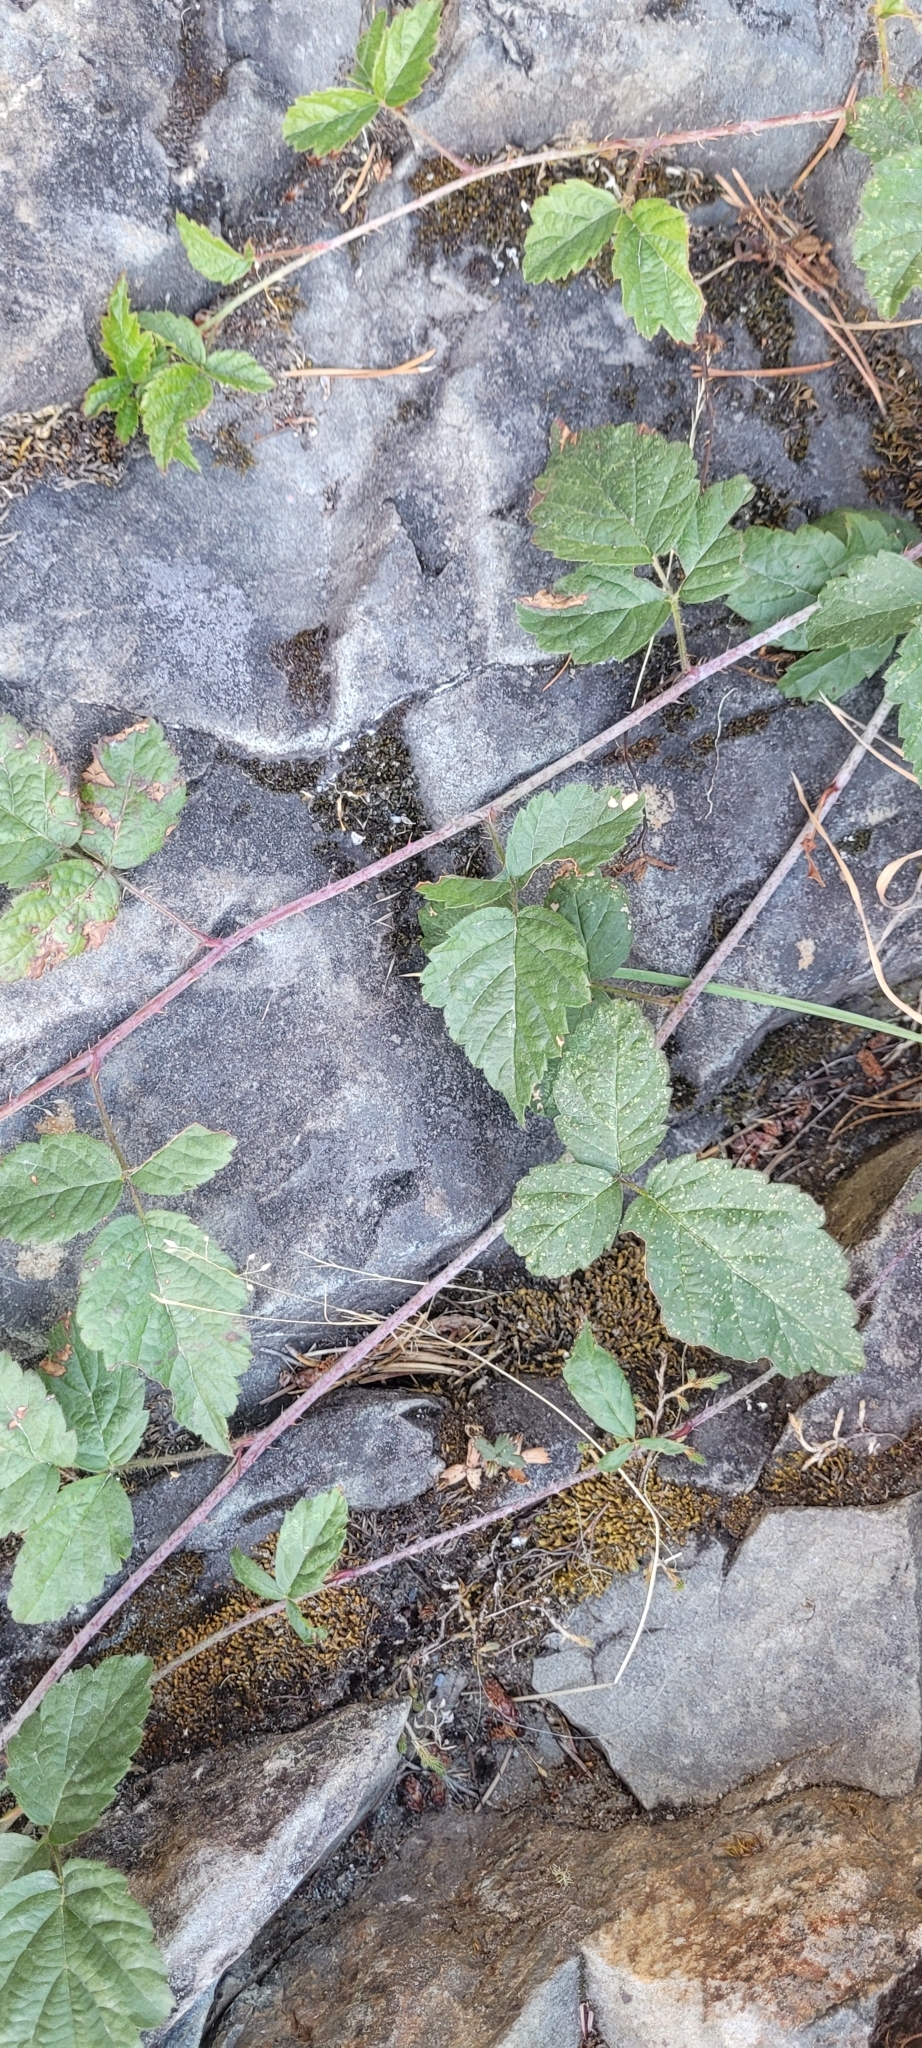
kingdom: Plantae
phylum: Tracheophyta
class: Magnoliopsida
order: Rosales
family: Rosaceae
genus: Rubus
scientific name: Rubus ursinus
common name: Pacific blackberry
